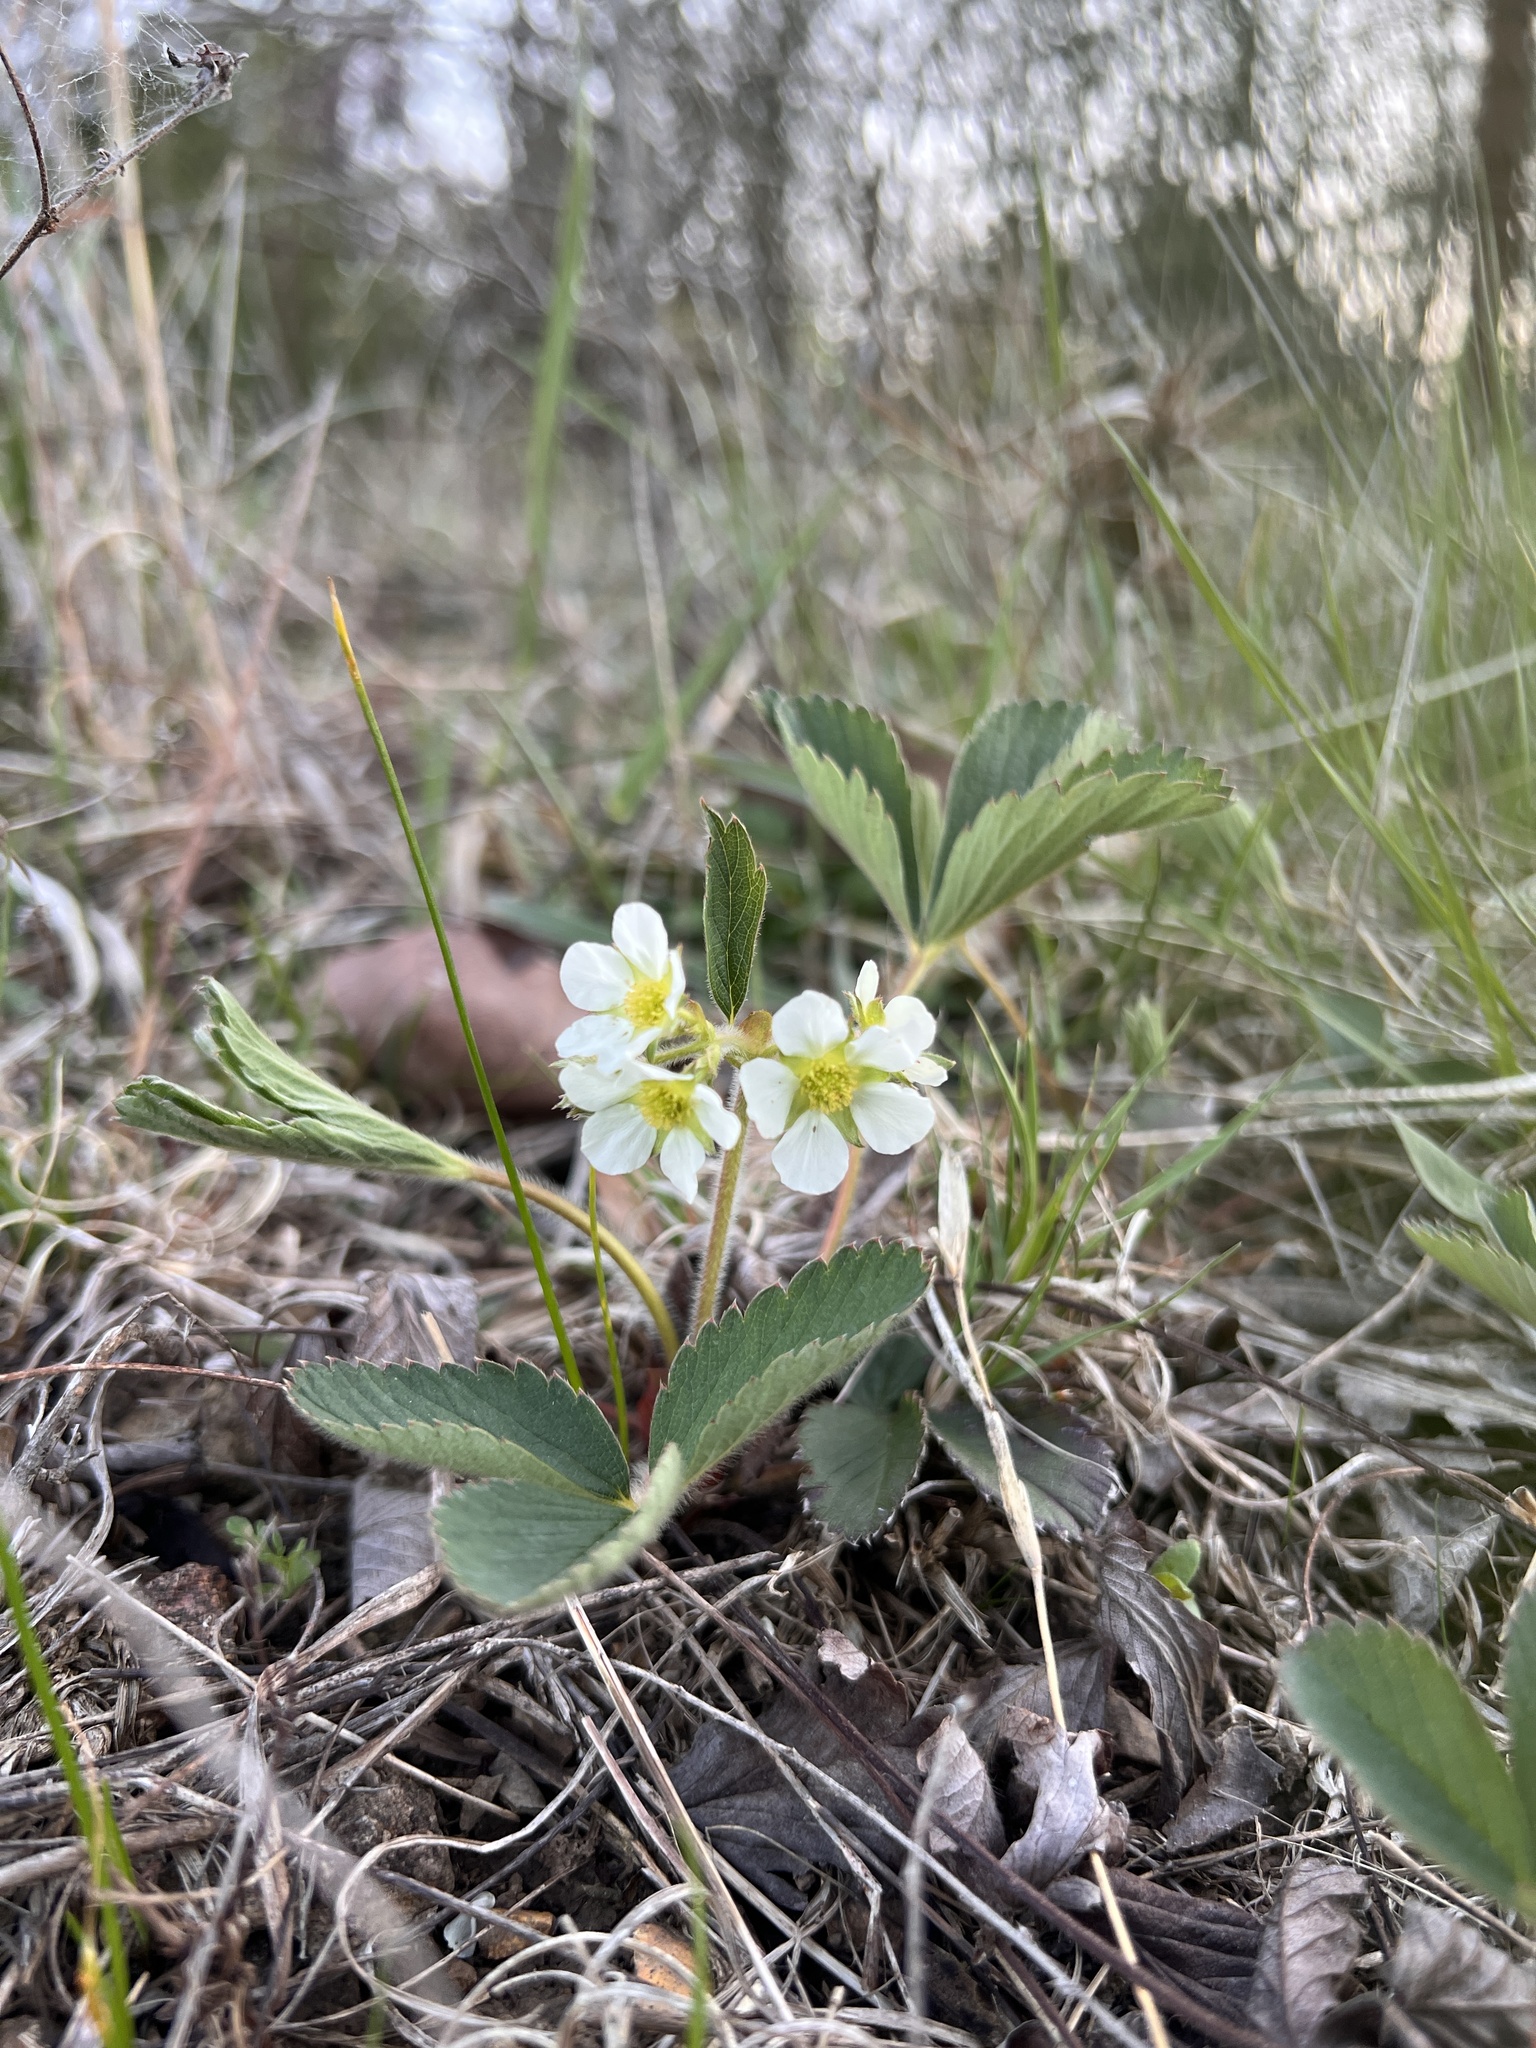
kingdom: Plantae
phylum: Tracheophyta
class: Magnoliopsida
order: Rosales
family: Rosaceae
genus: Fragaria
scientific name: Fragaria virginiana
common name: Thickleaved wild strawberry
